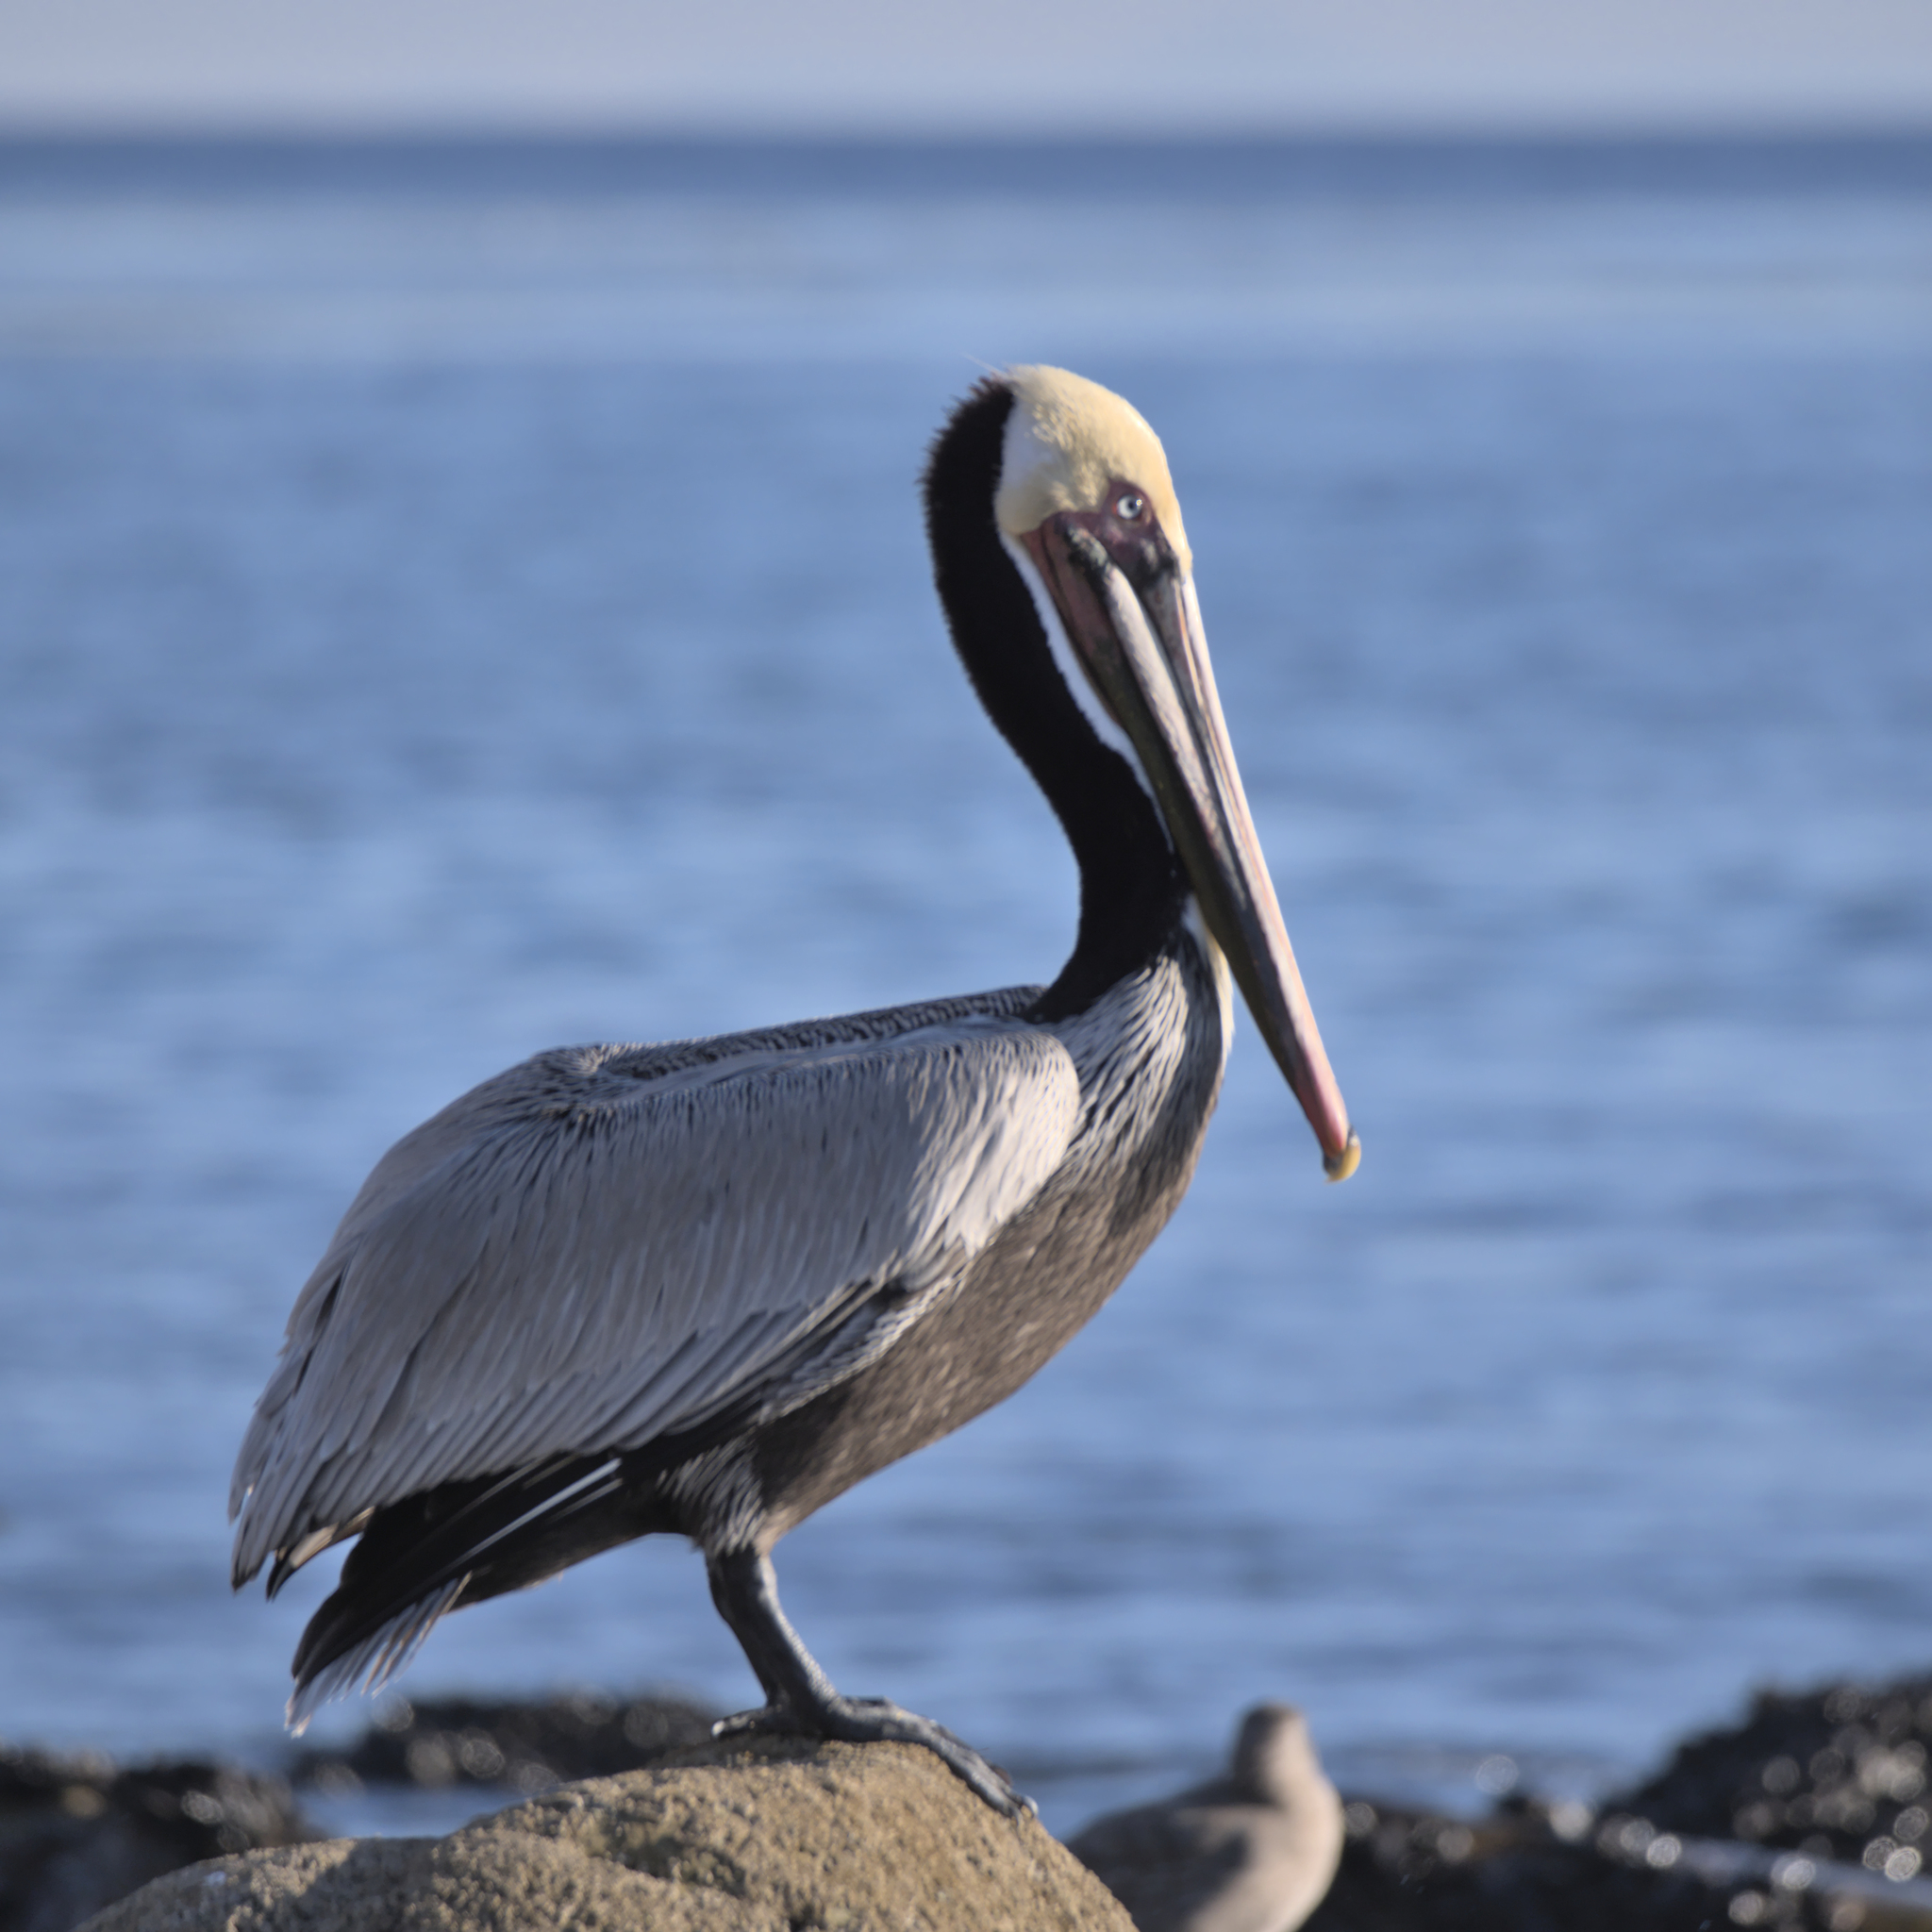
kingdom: Animalia
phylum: Chordata
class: Aves
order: Pelecaniformes
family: Pelecanidae
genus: Pelecanus
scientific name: Pelecanus occidentalis
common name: Brown pelican
